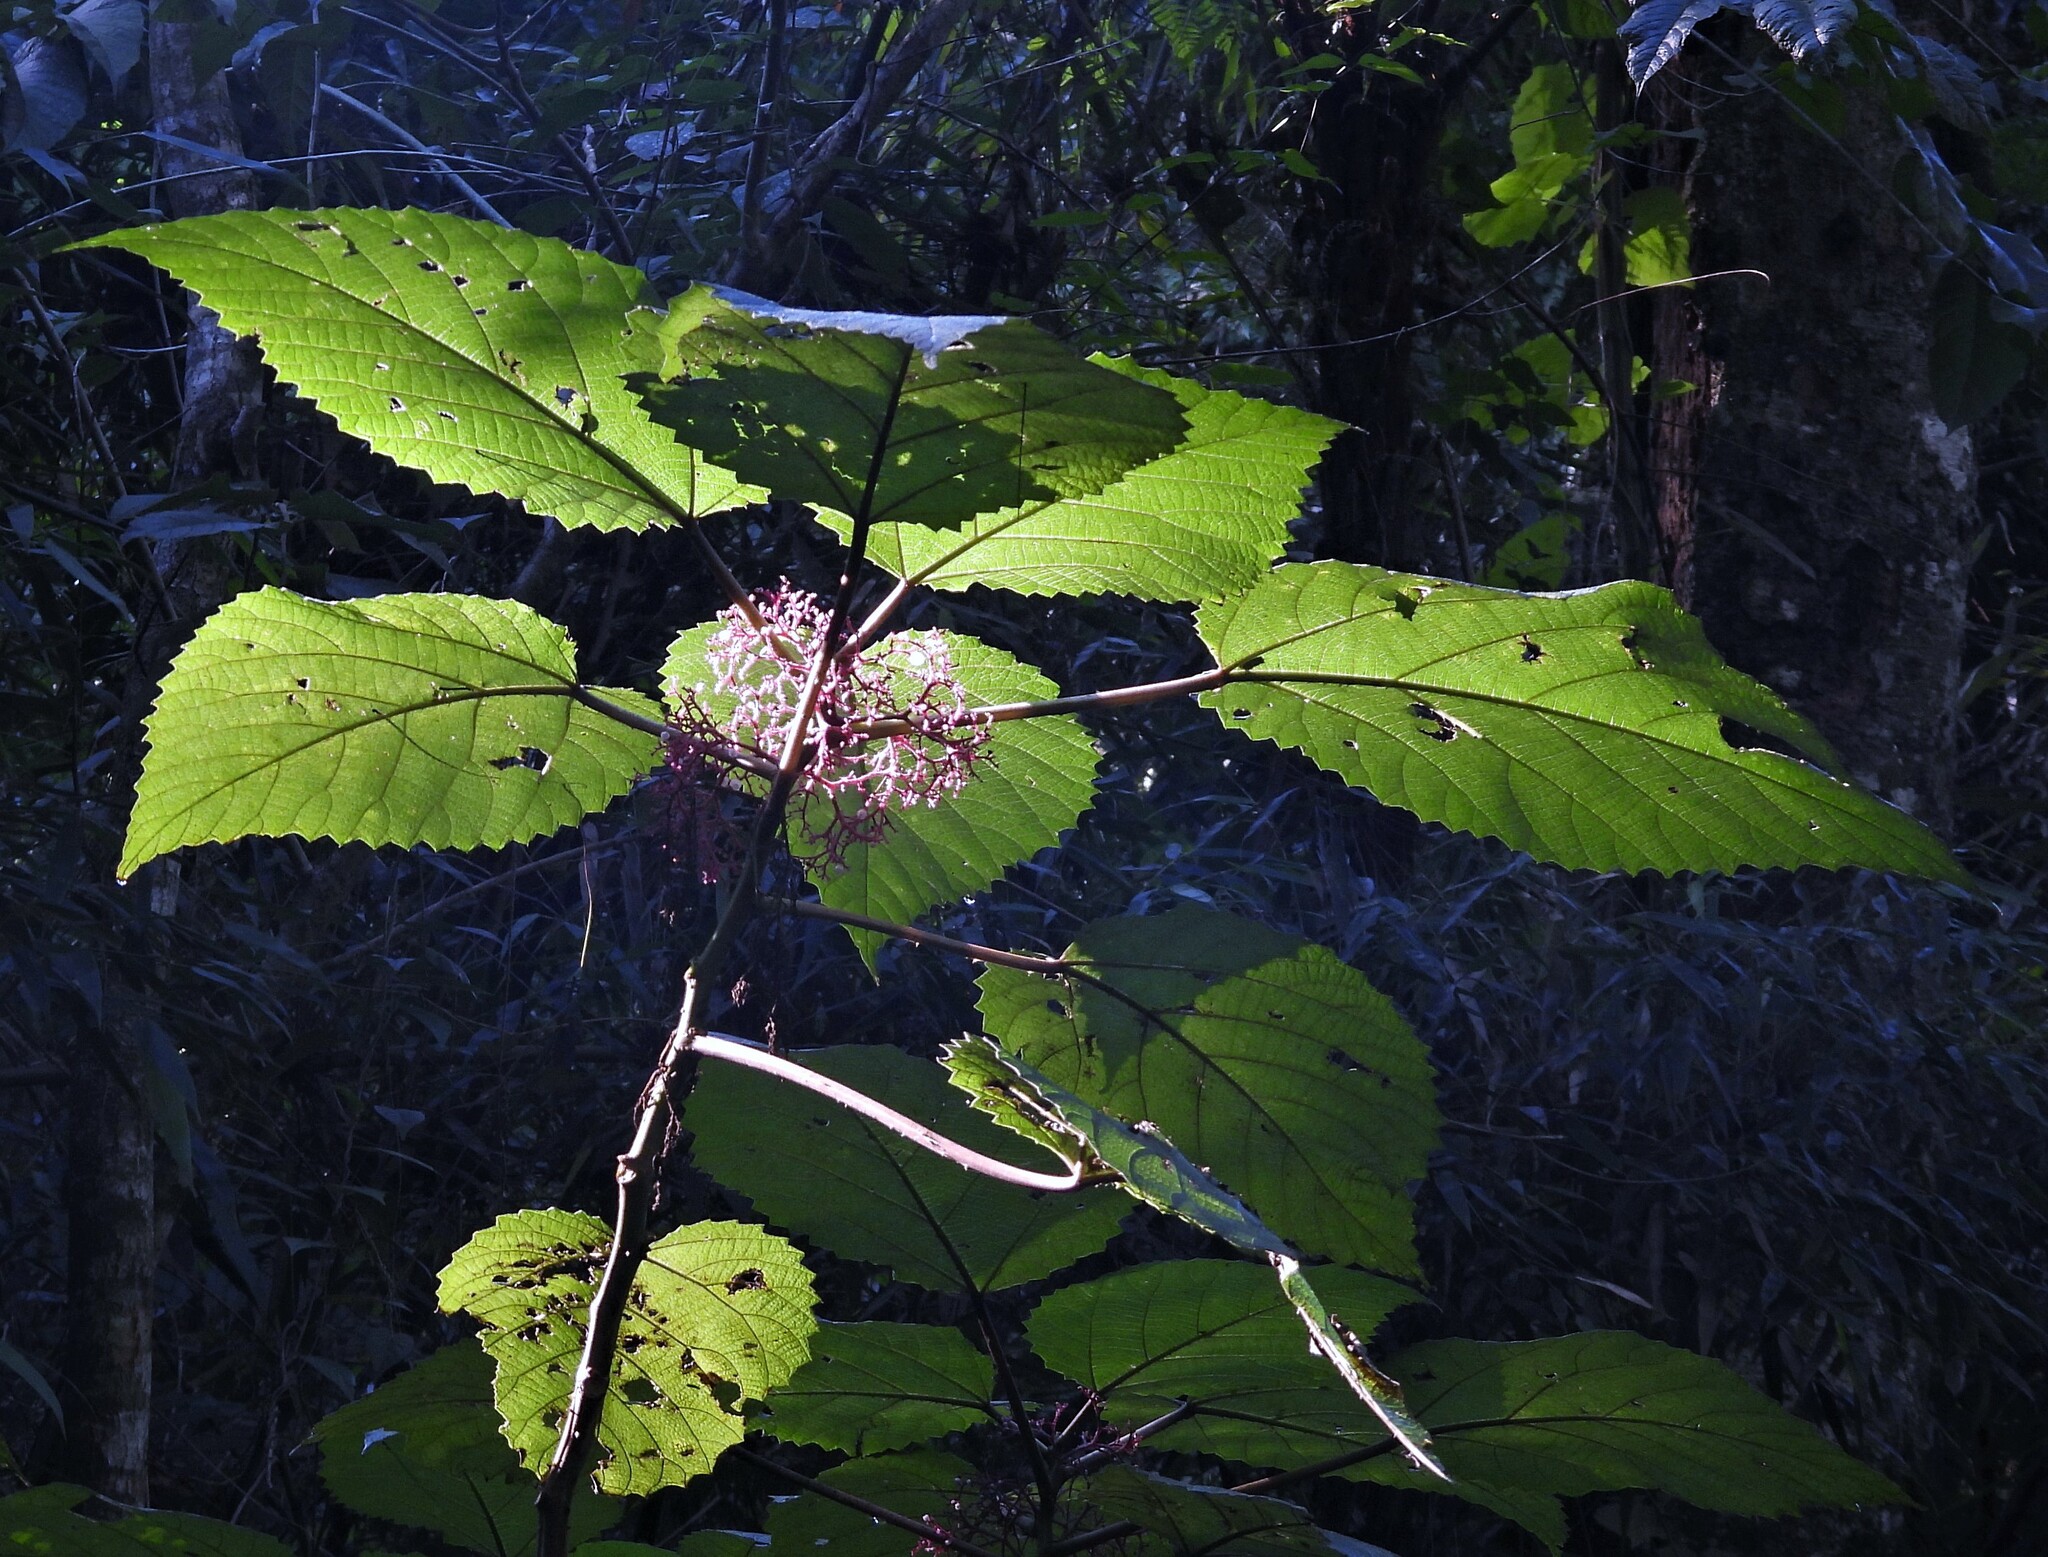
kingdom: Plantae
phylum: Tracheophyta
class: Magnoliopsida
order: Rosales
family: Urticaceae
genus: Urera
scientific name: Urera baccifera
